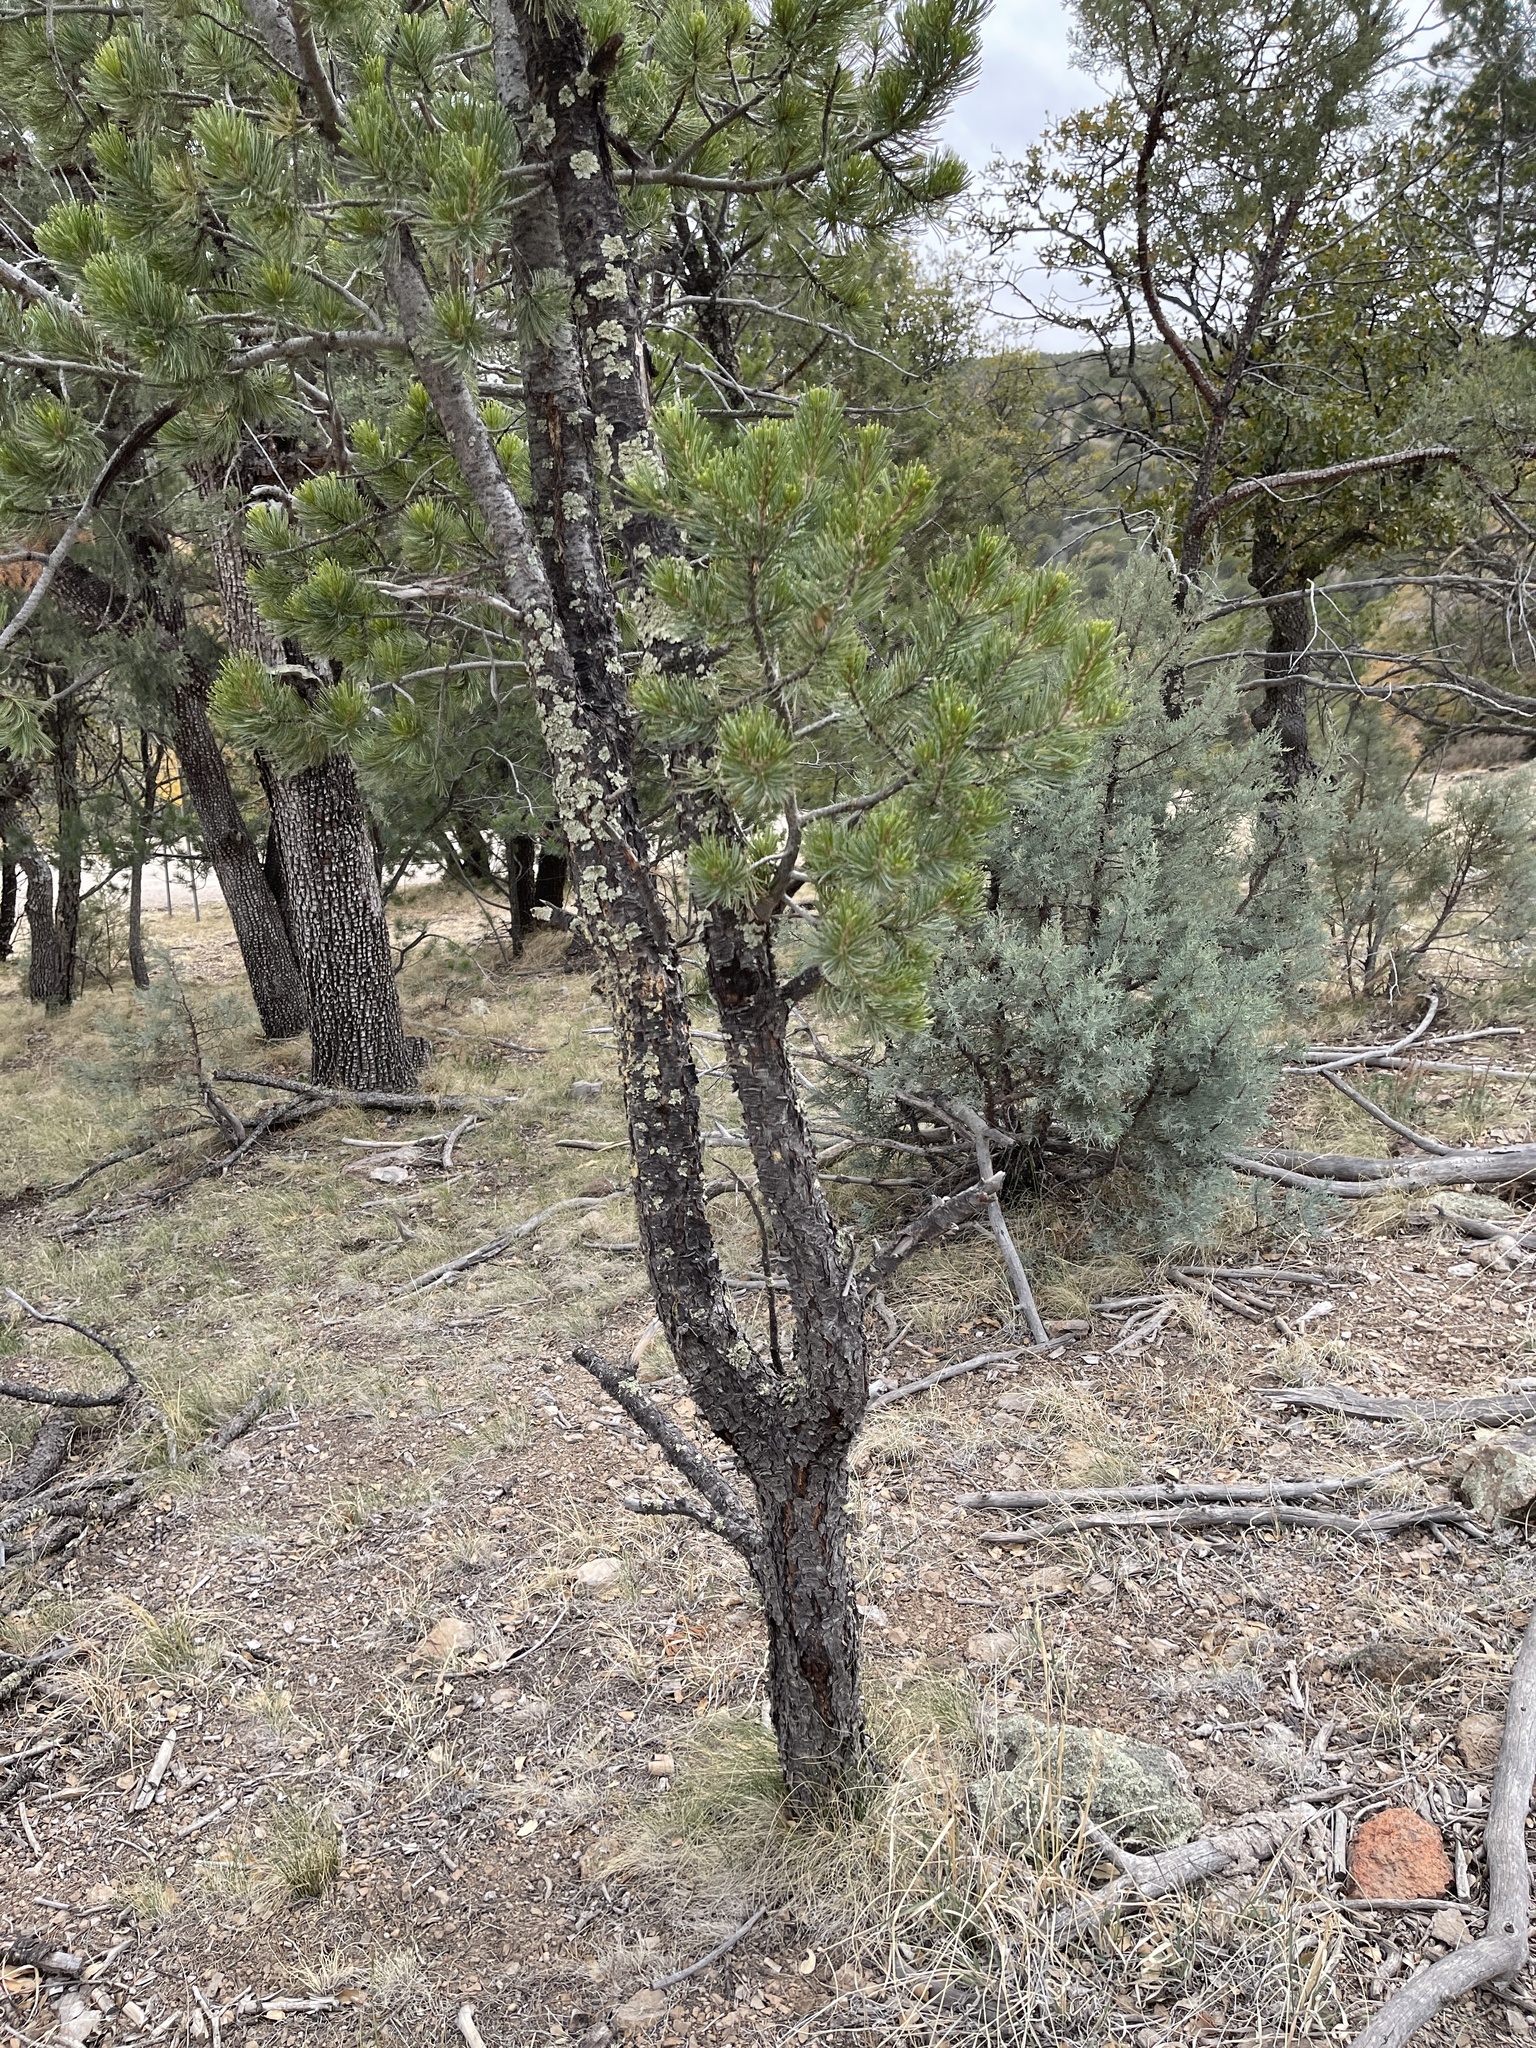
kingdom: Plantae
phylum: Tracheophyta
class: Pinopsida
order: Pinales
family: Pinaceae
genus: Pinus
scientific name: Pinus cembroides
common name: Mexican nut pine
